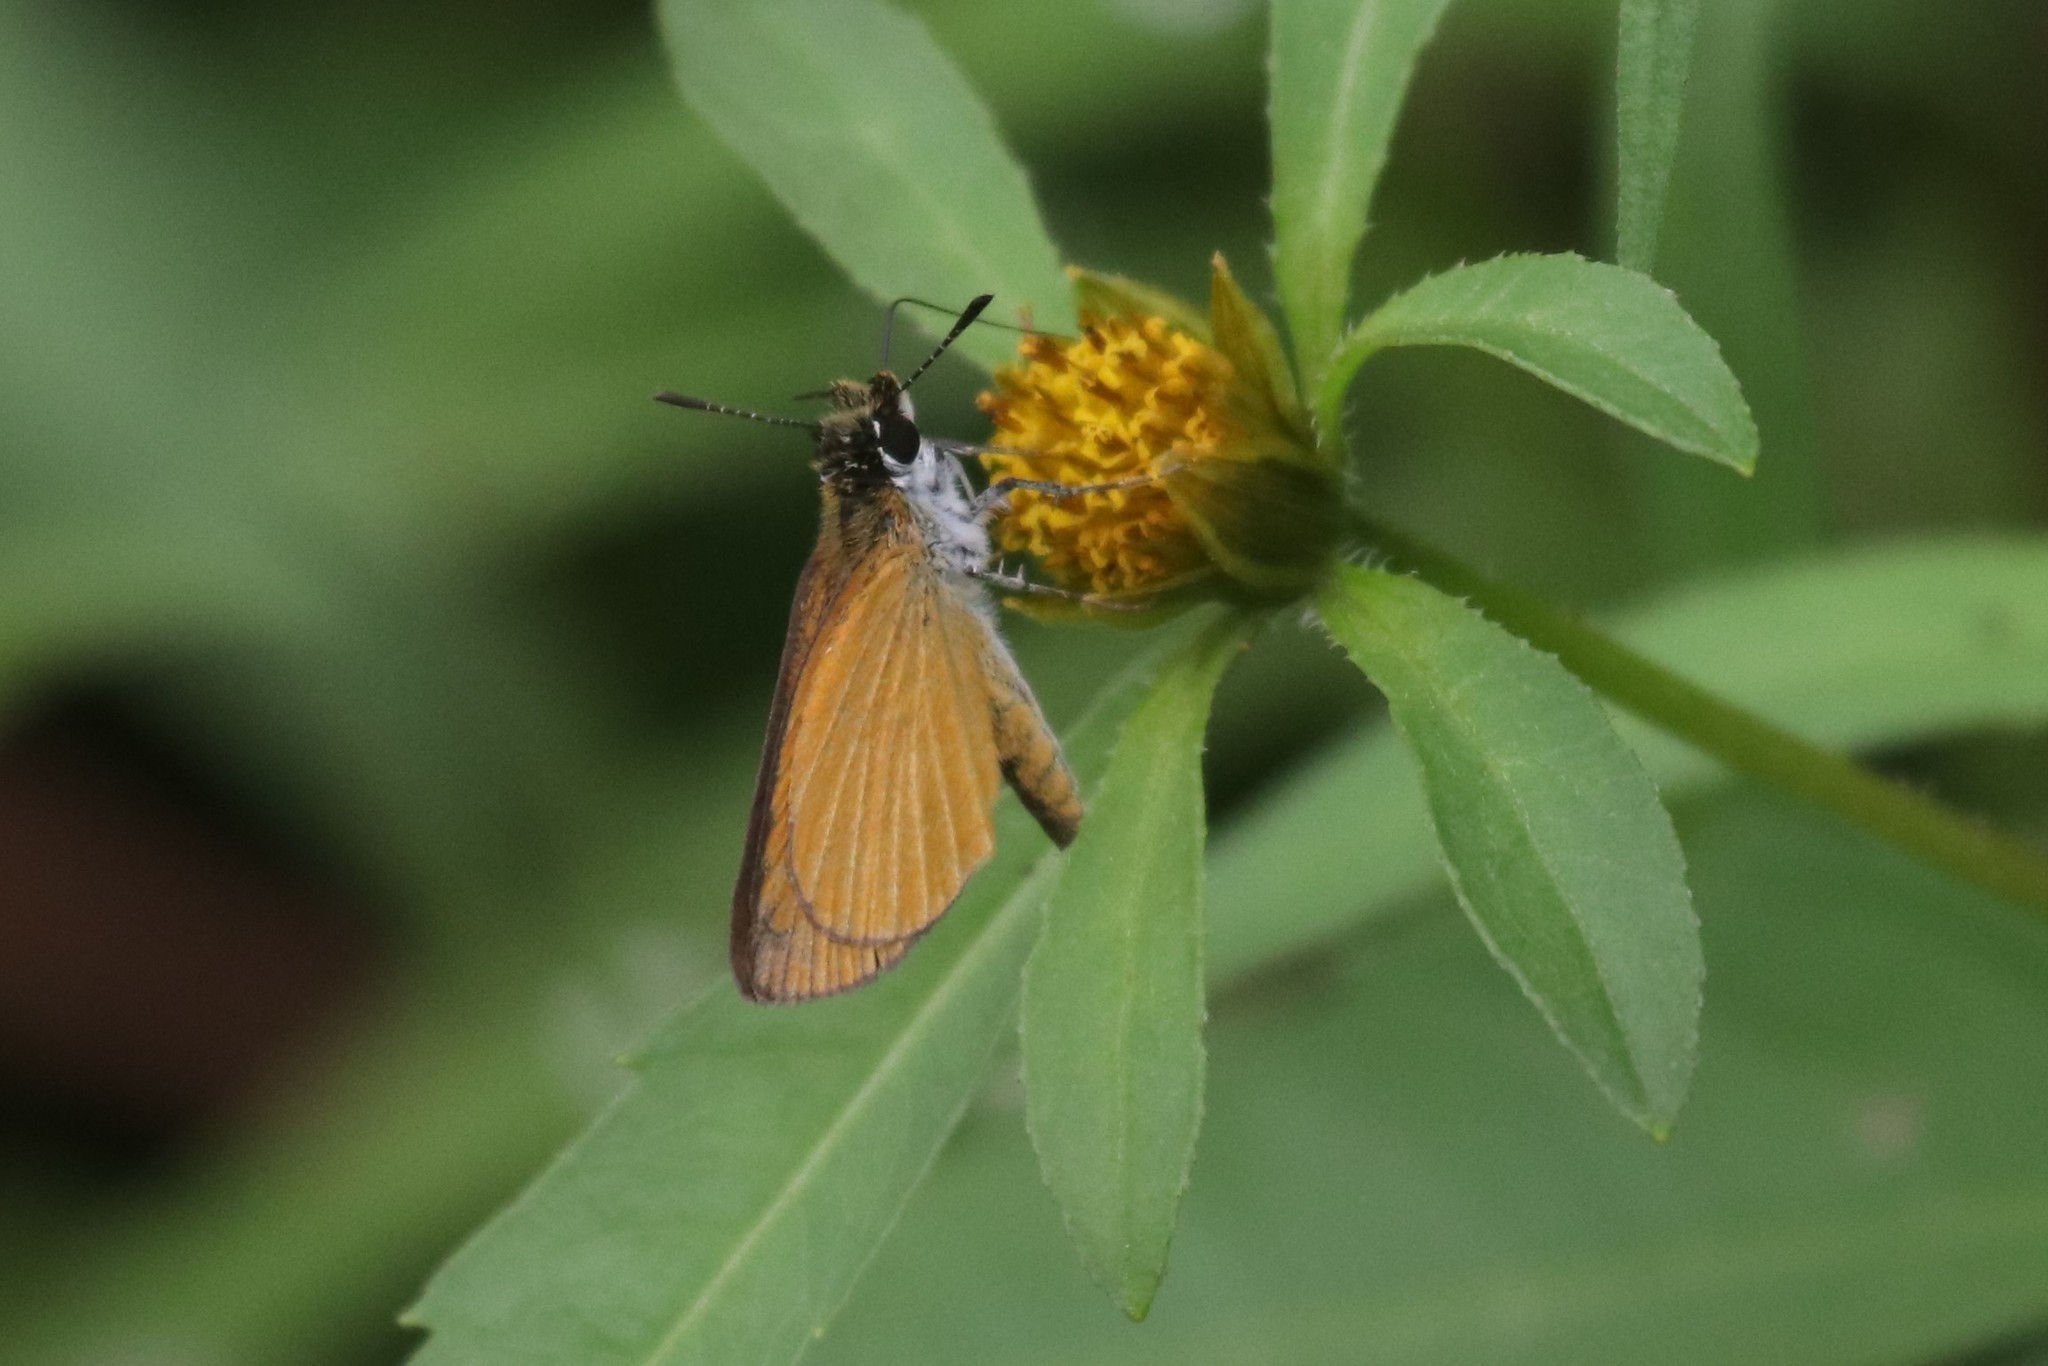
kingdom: Animalia
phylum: Arthropoda
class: Insecta
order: Lepidoptera
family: Hesperiidae
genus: Ancyloxypha
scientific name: Ancyloxypha numitor
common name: Least skipper
